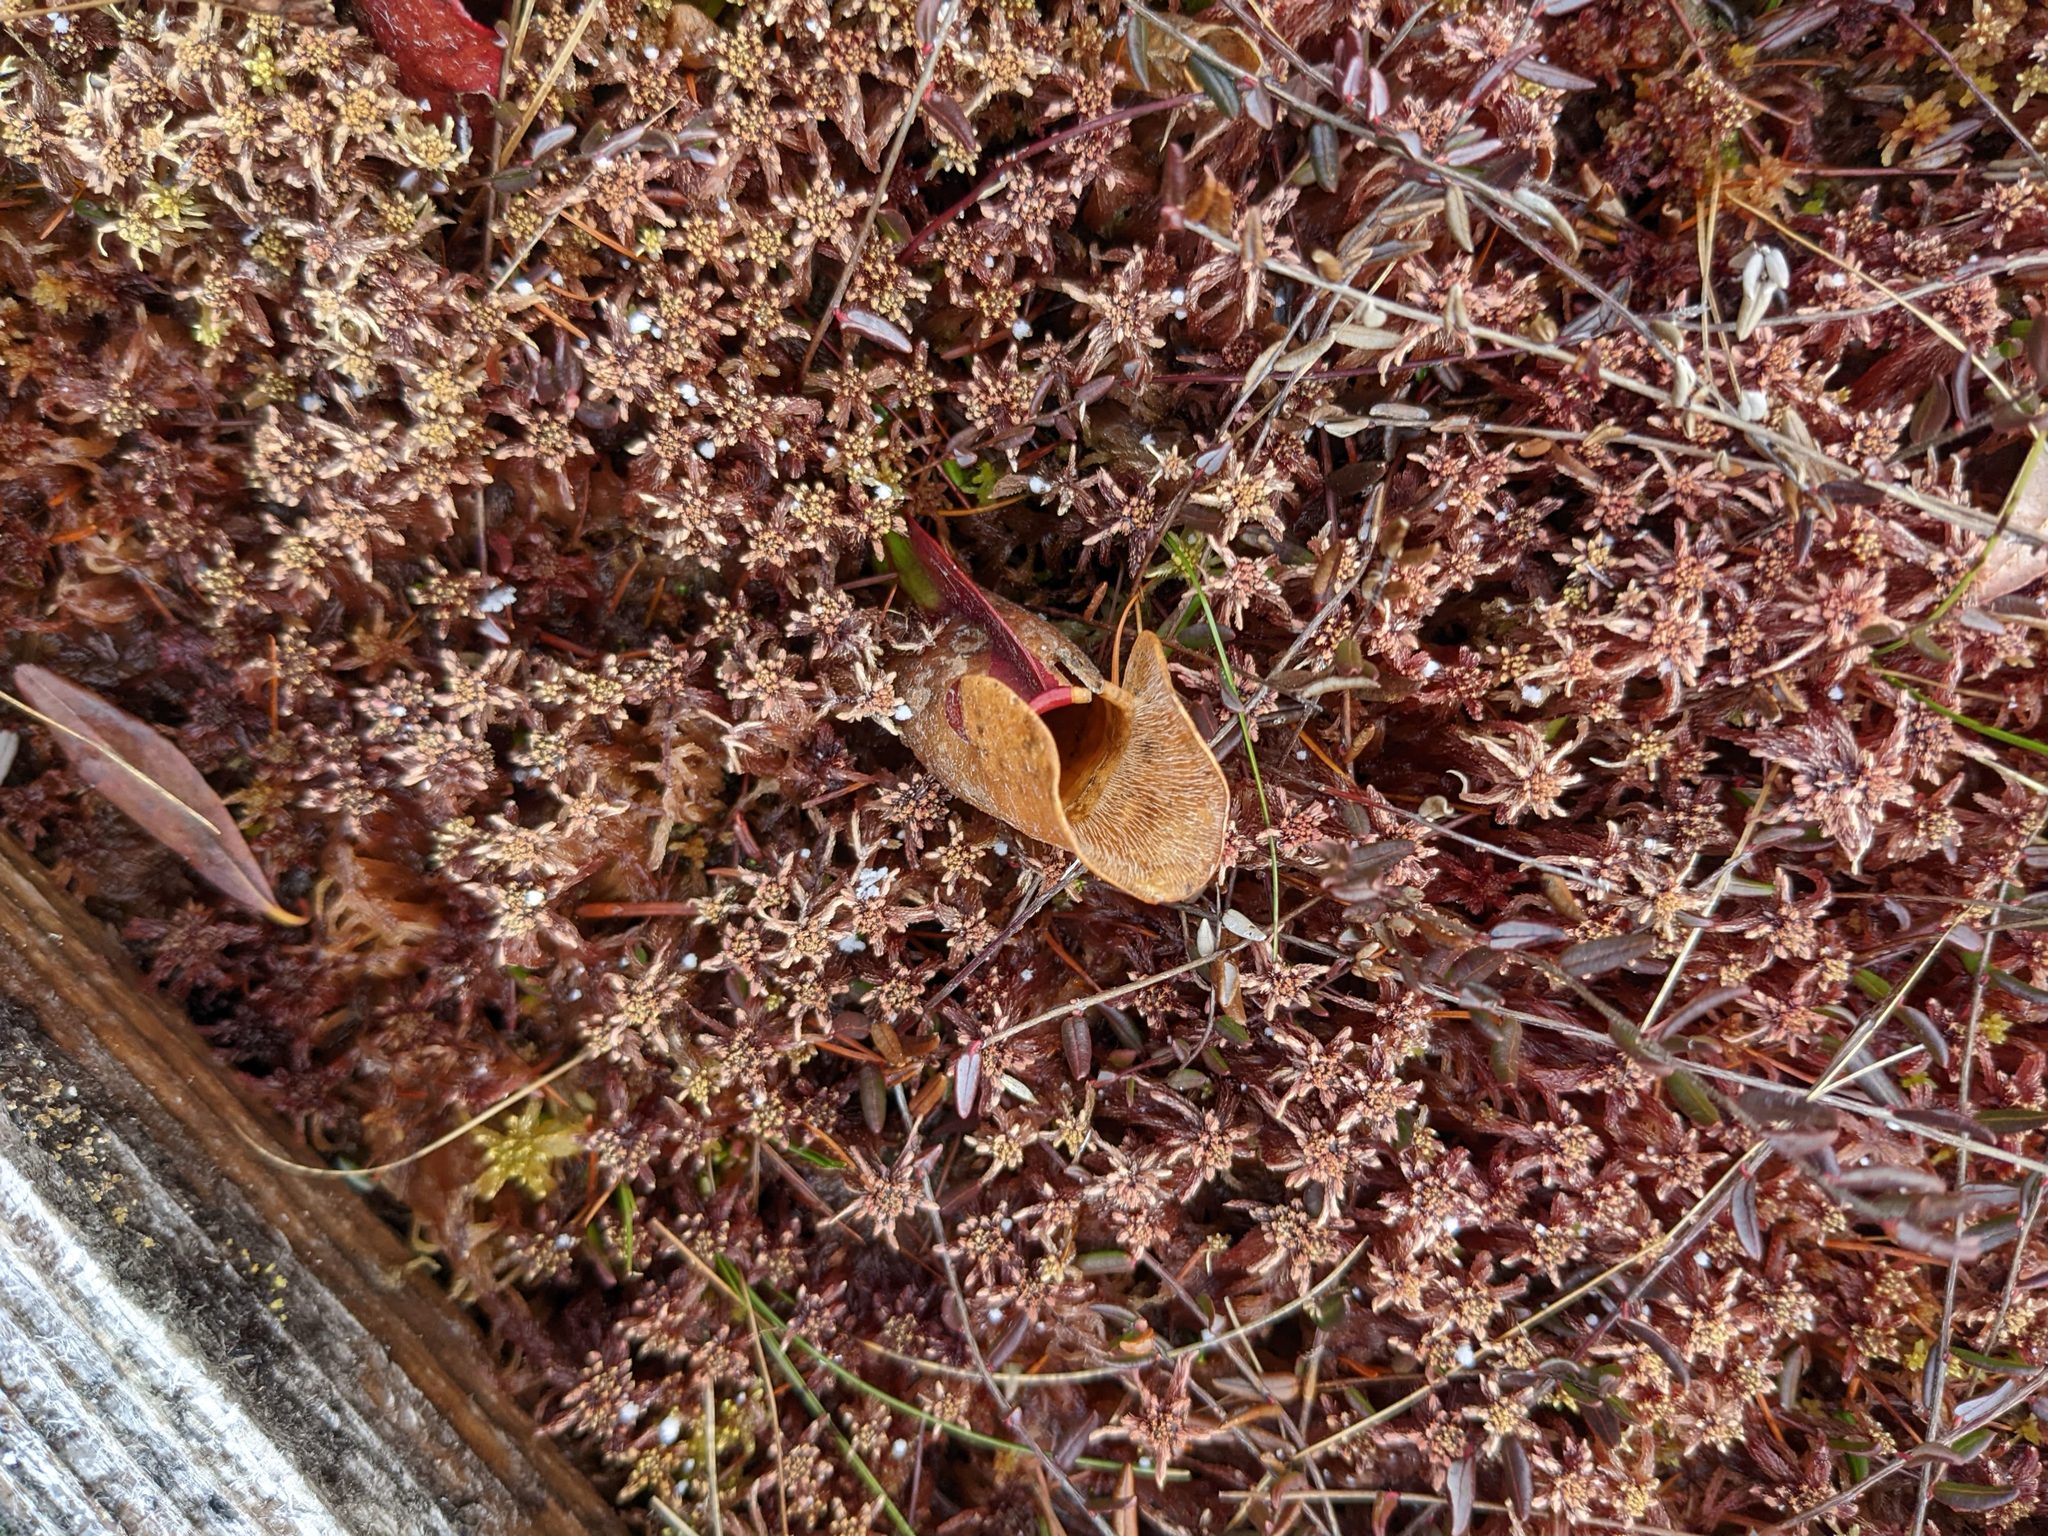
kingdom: Plantae
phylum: Tracheophyta
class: Magnoliopsida
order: Ericales
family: Sarraceniaceae
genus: Sarracenia
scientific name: Sarracenia purpurea
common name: Pitcherplant
